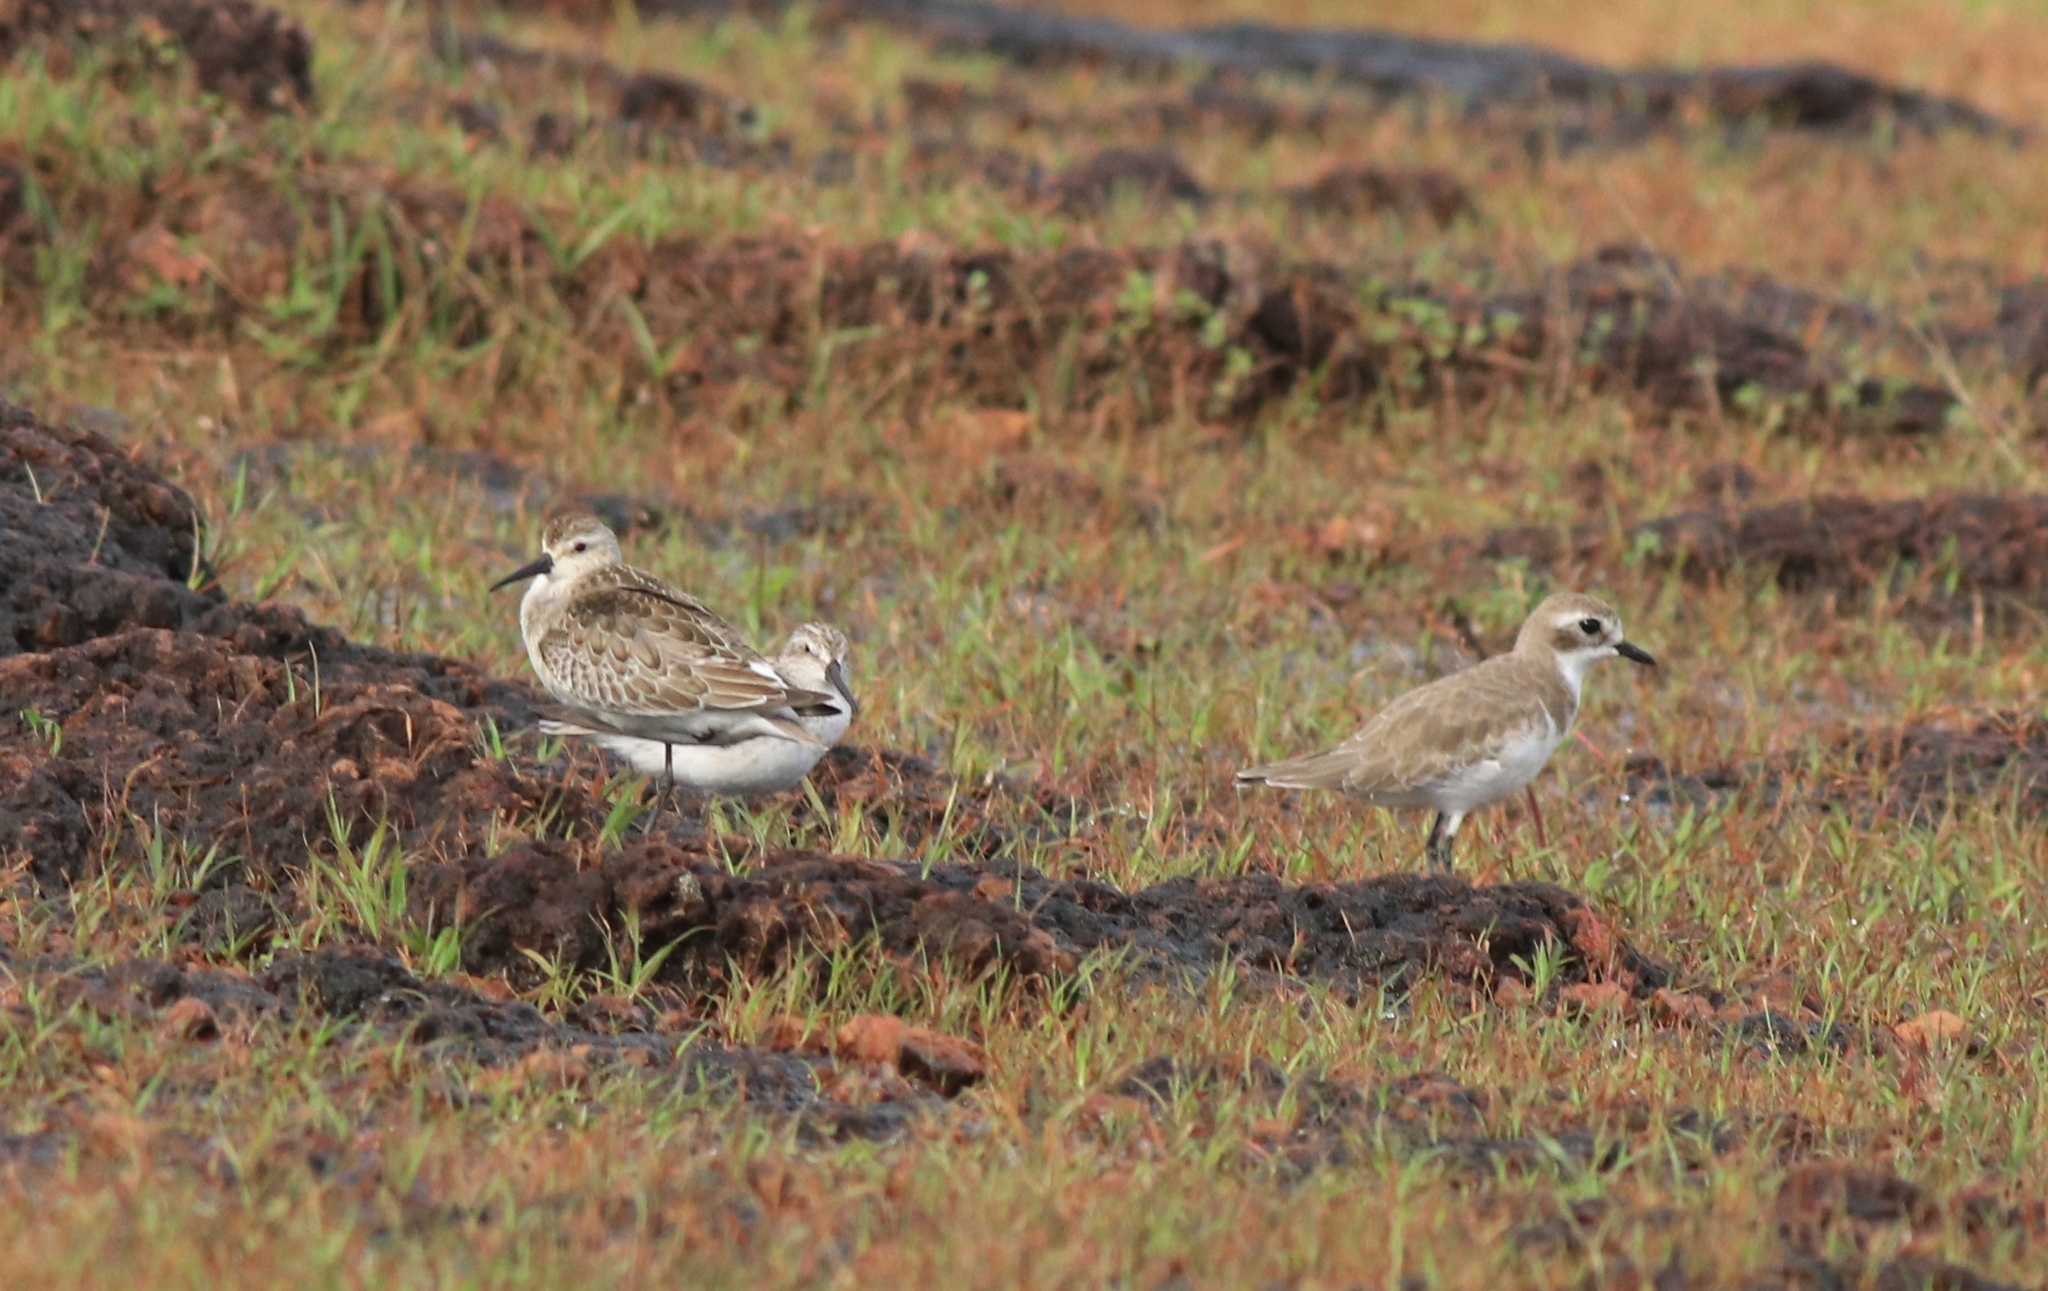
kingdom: Animalia
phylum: Chordata
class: Aves
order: Charadriiformes
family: Charadriidae
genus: Anarhynchus
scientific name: Anarhynchus
